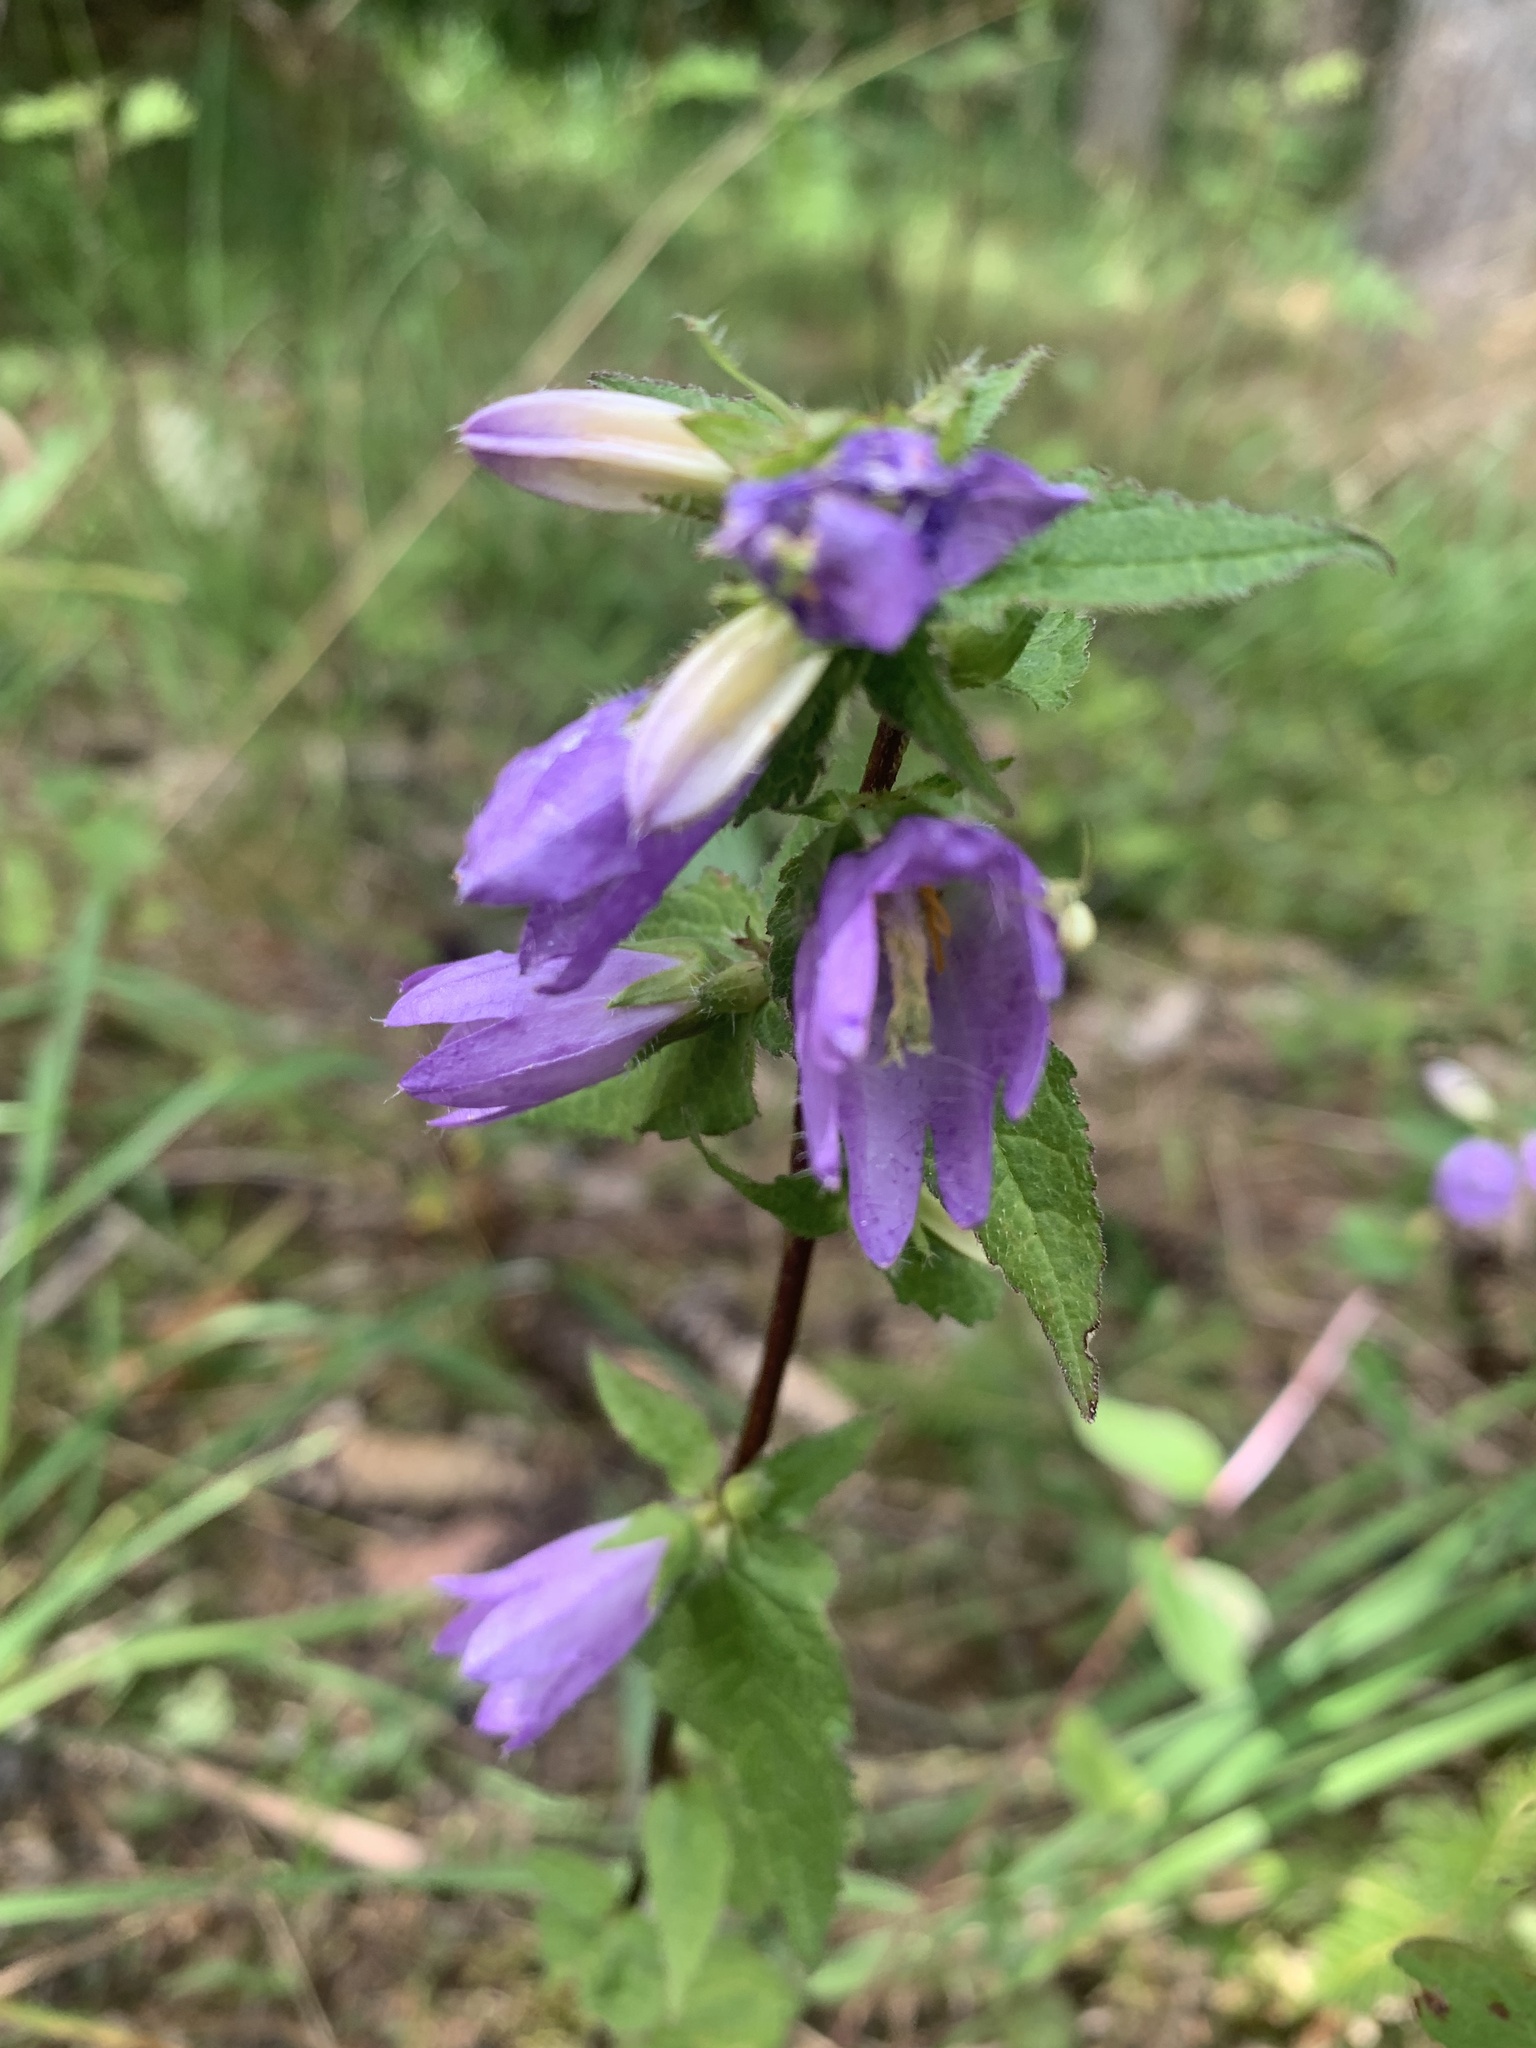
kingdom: Plantae
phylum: Tracheophyta
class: Magnoliopsida
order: Asterales
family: Campanulaceae
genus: Campanula
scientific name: Campanula trachelium
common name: Nettle-leaved bellflower
